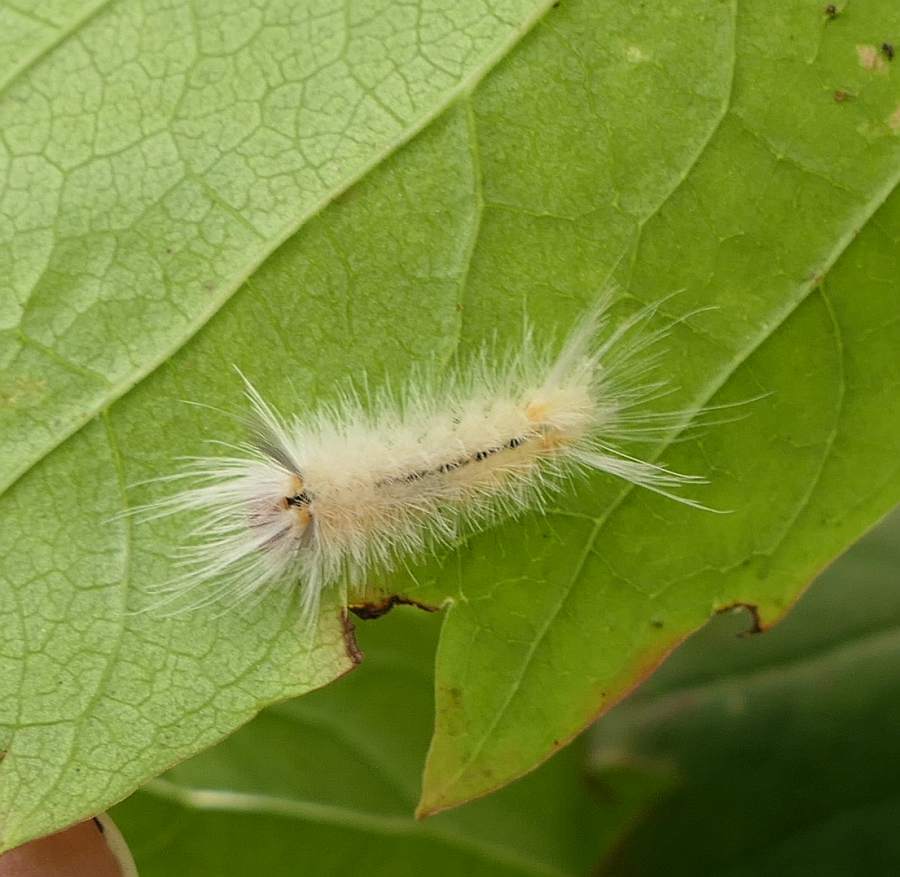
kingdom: Animalia
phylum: Arthropoda
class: Insecta
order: Lepidoptera
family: Erebidae
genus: Halysidota
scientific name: Halysidota tessellaris
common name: Banded tussock moth
